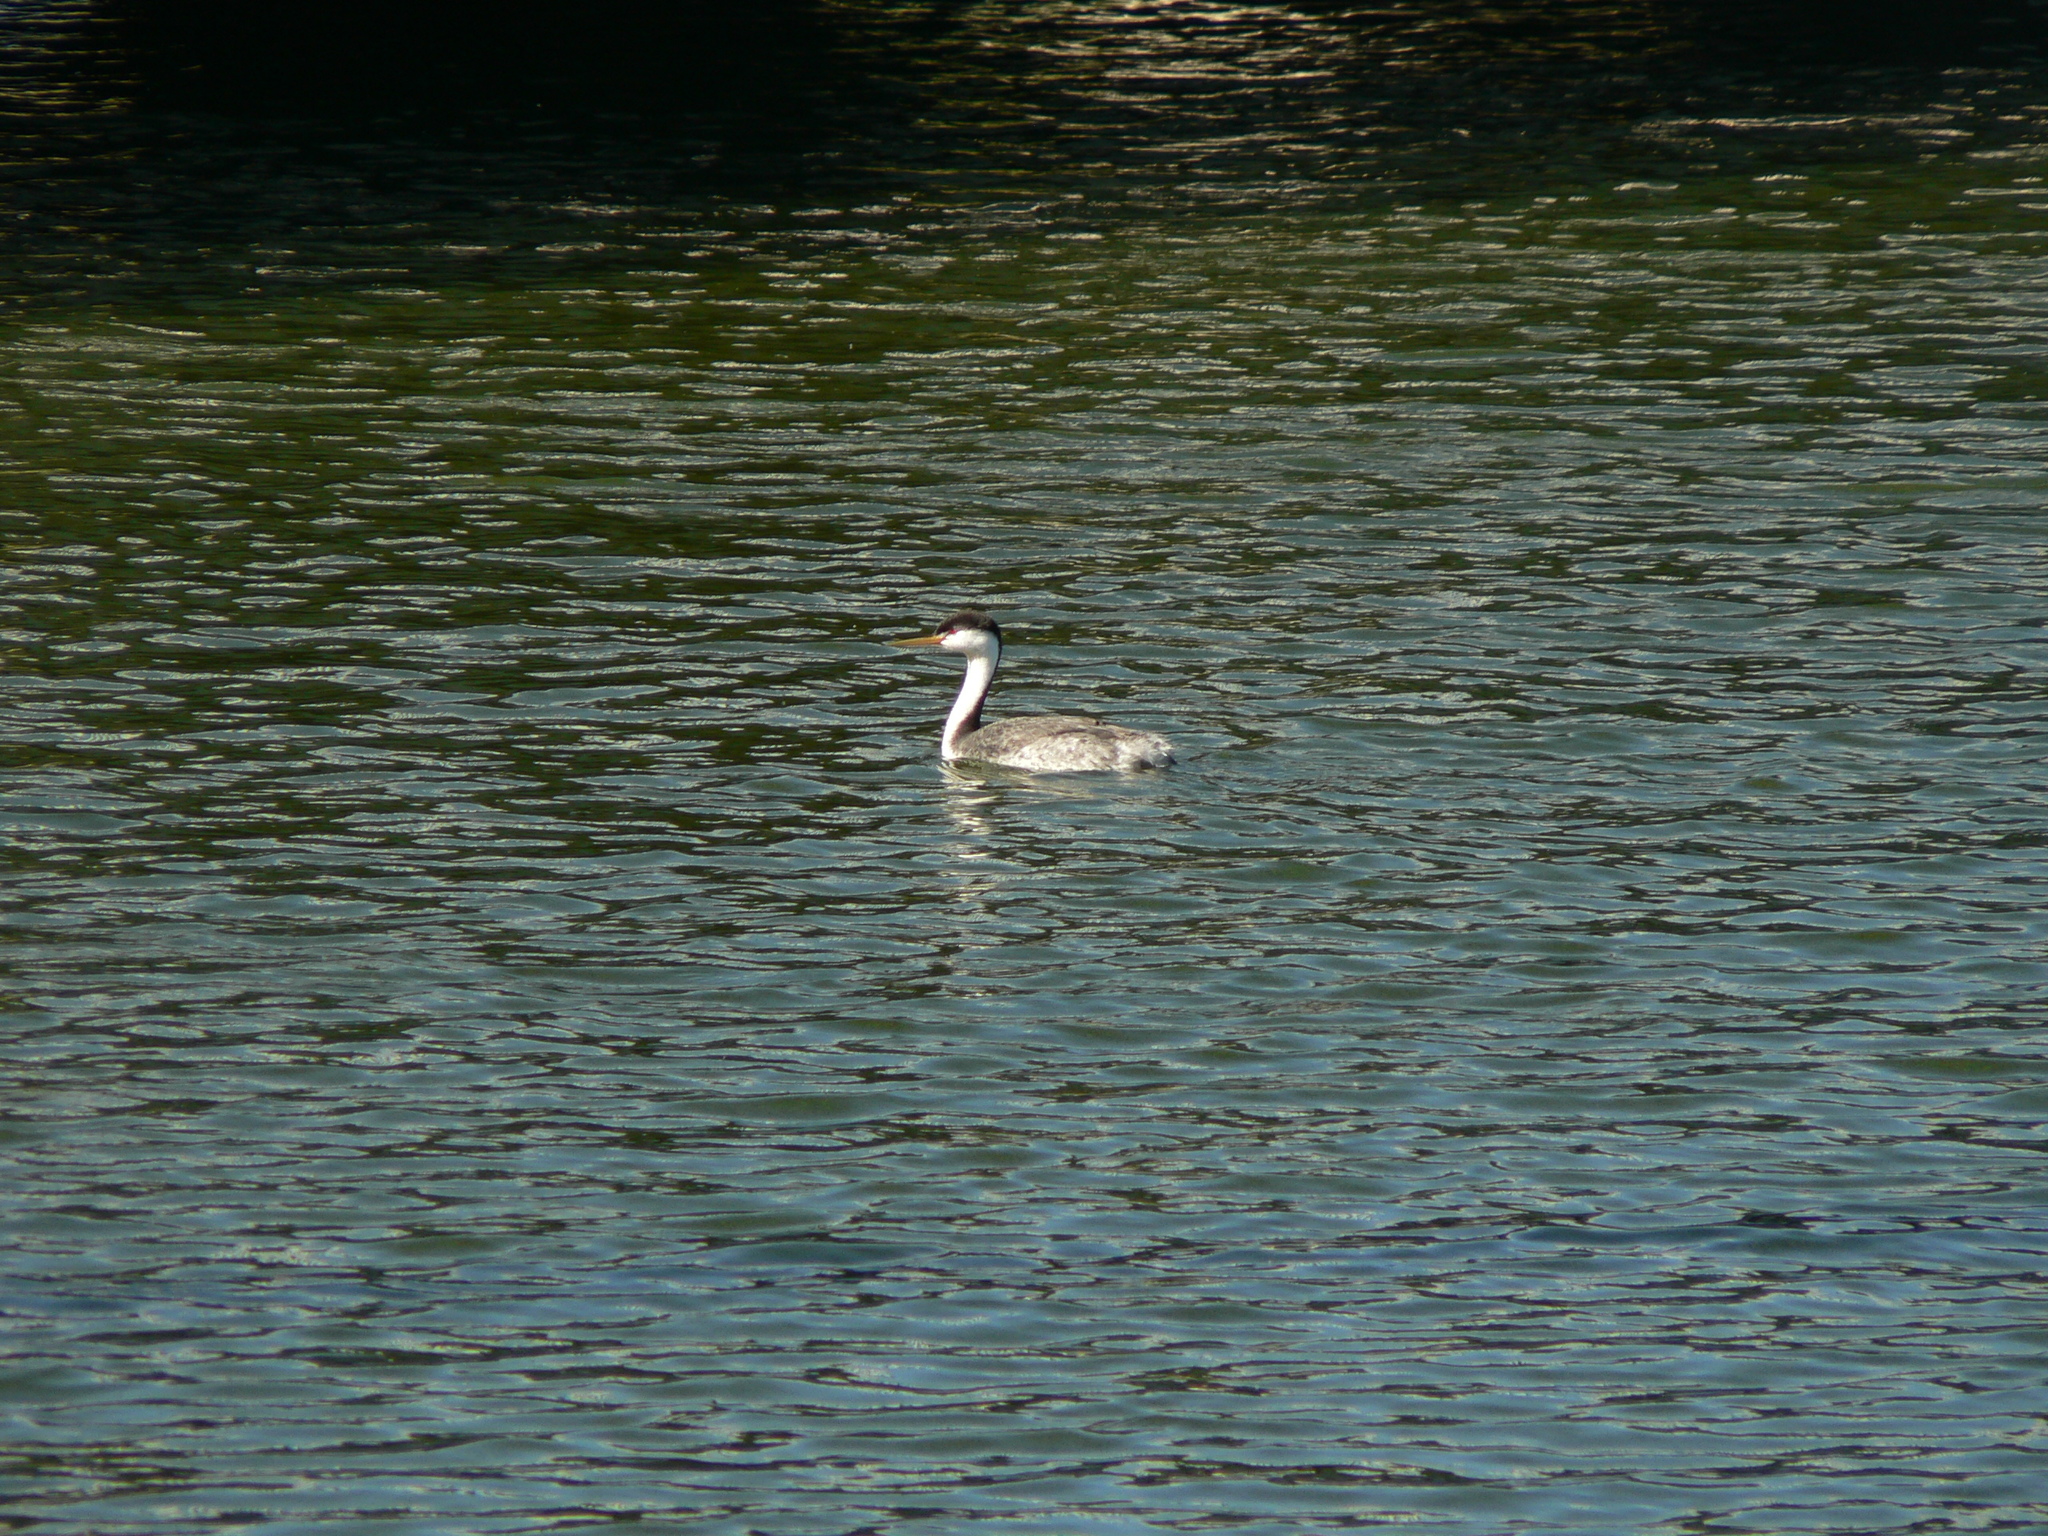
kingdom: Animalia
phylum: Chordata
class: Aves
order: Podicipediformes
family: Podicipedidae
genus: Aechmophorus
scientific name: Aechmophorus clarkii
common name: Clark's grebe
